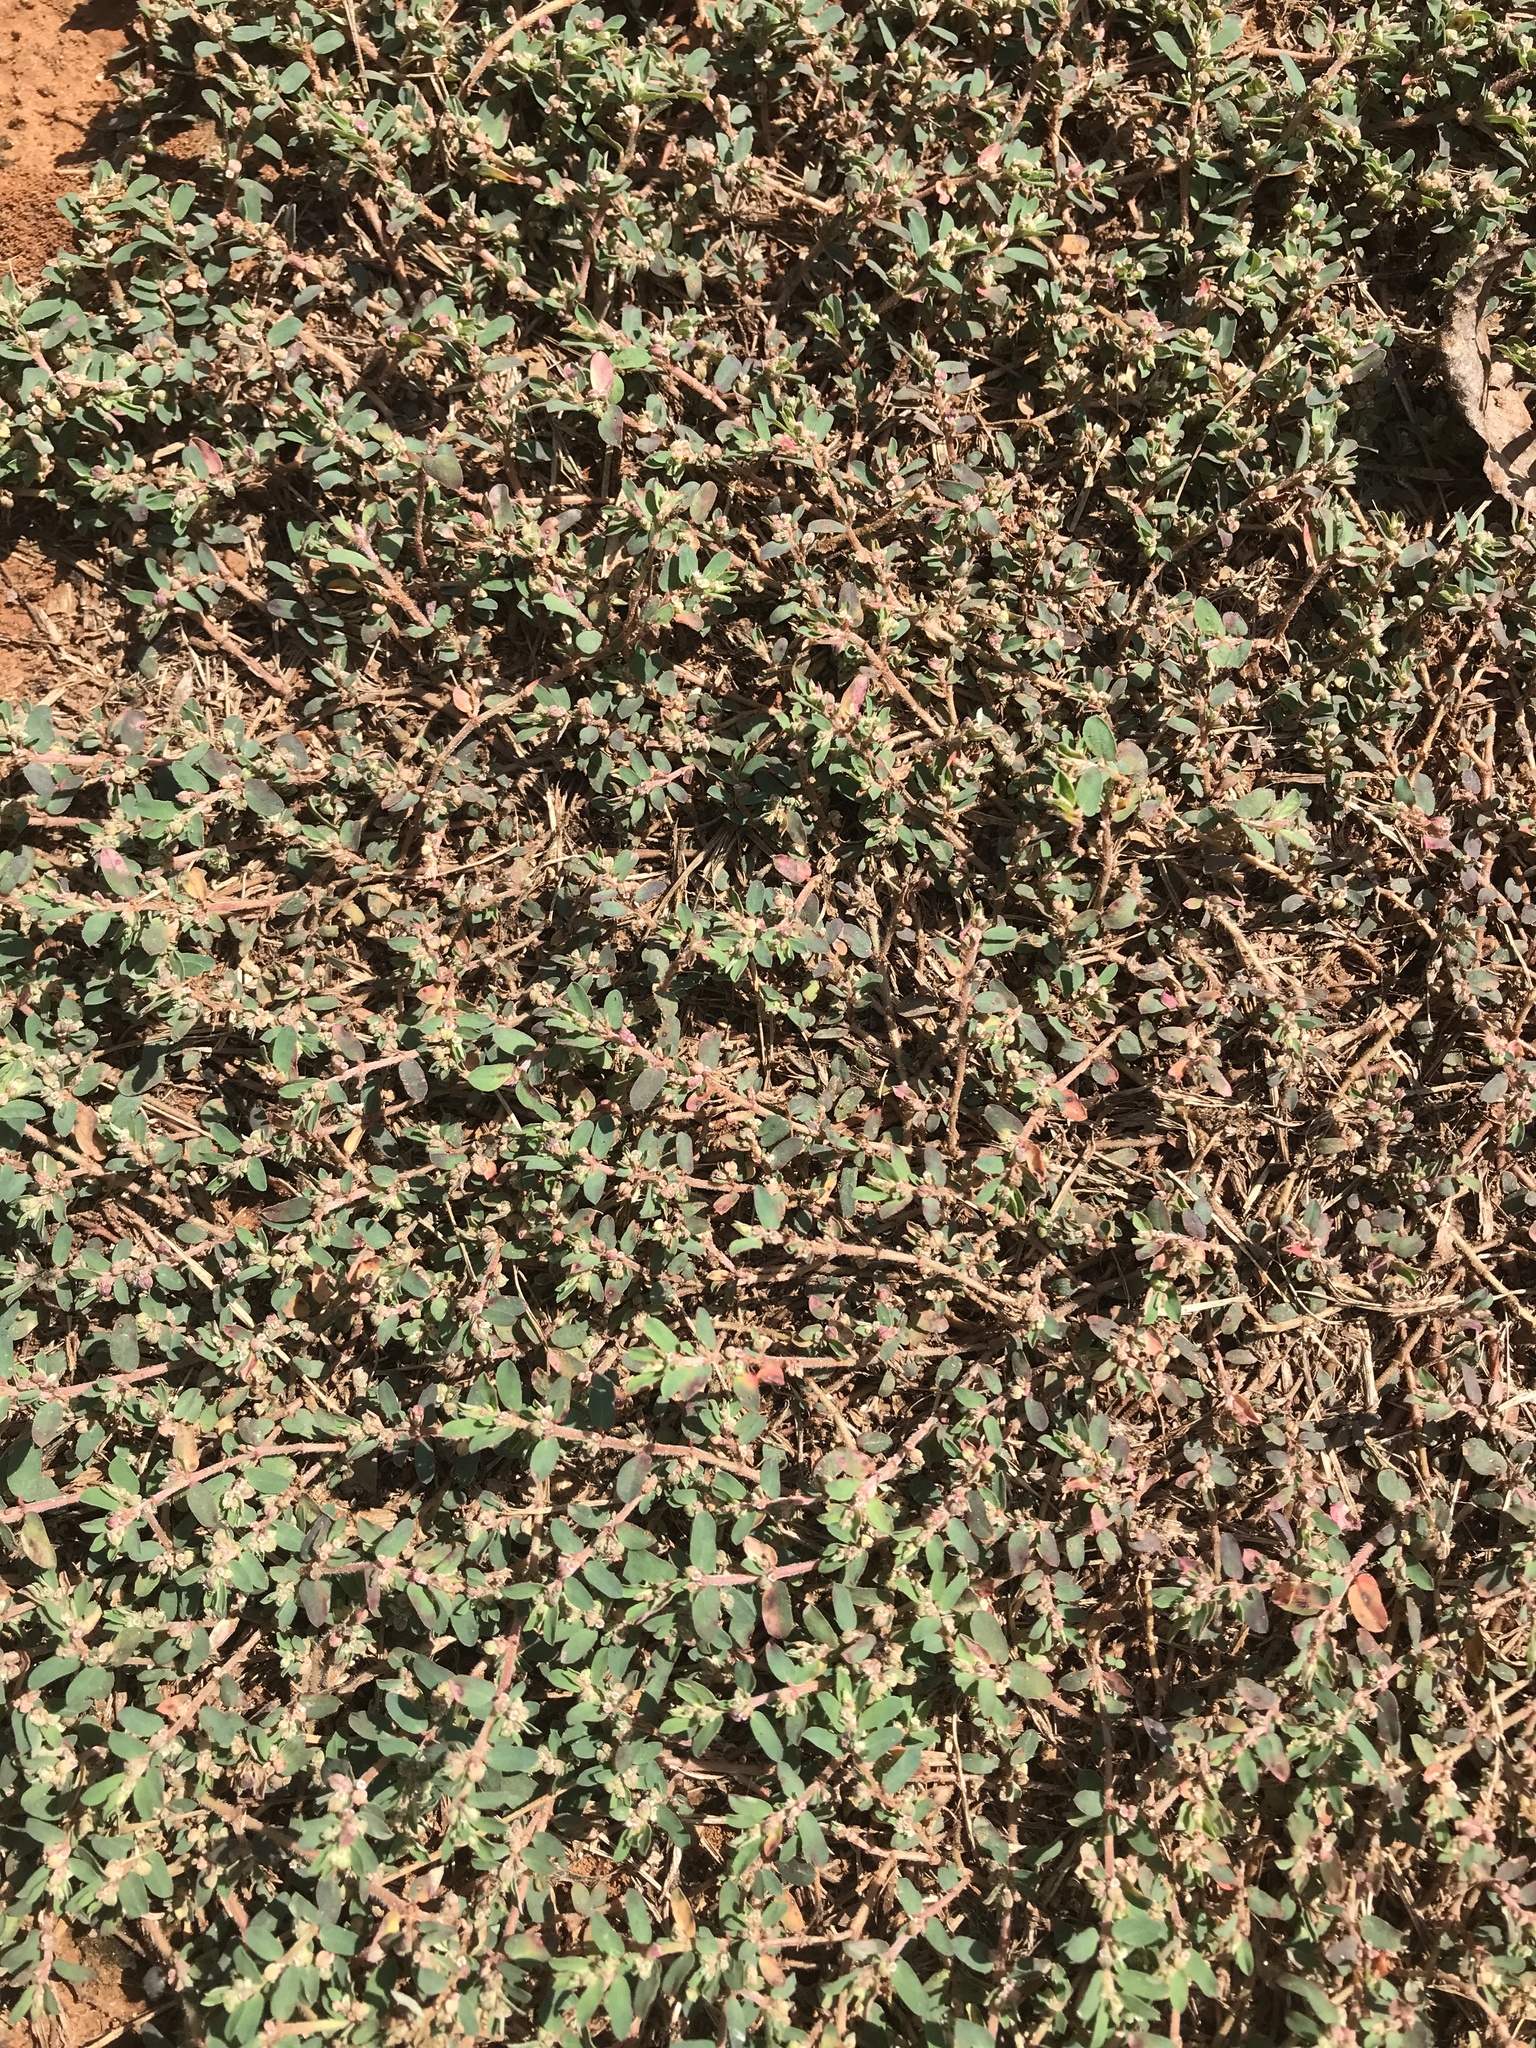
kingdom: Plantae
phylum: Tracheophyta
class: Magnoliopsida
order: Malpighiales
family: Euphorbiaceae
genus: Euphorbia
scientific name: Euphorbia maculata
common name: Spotted spurge
